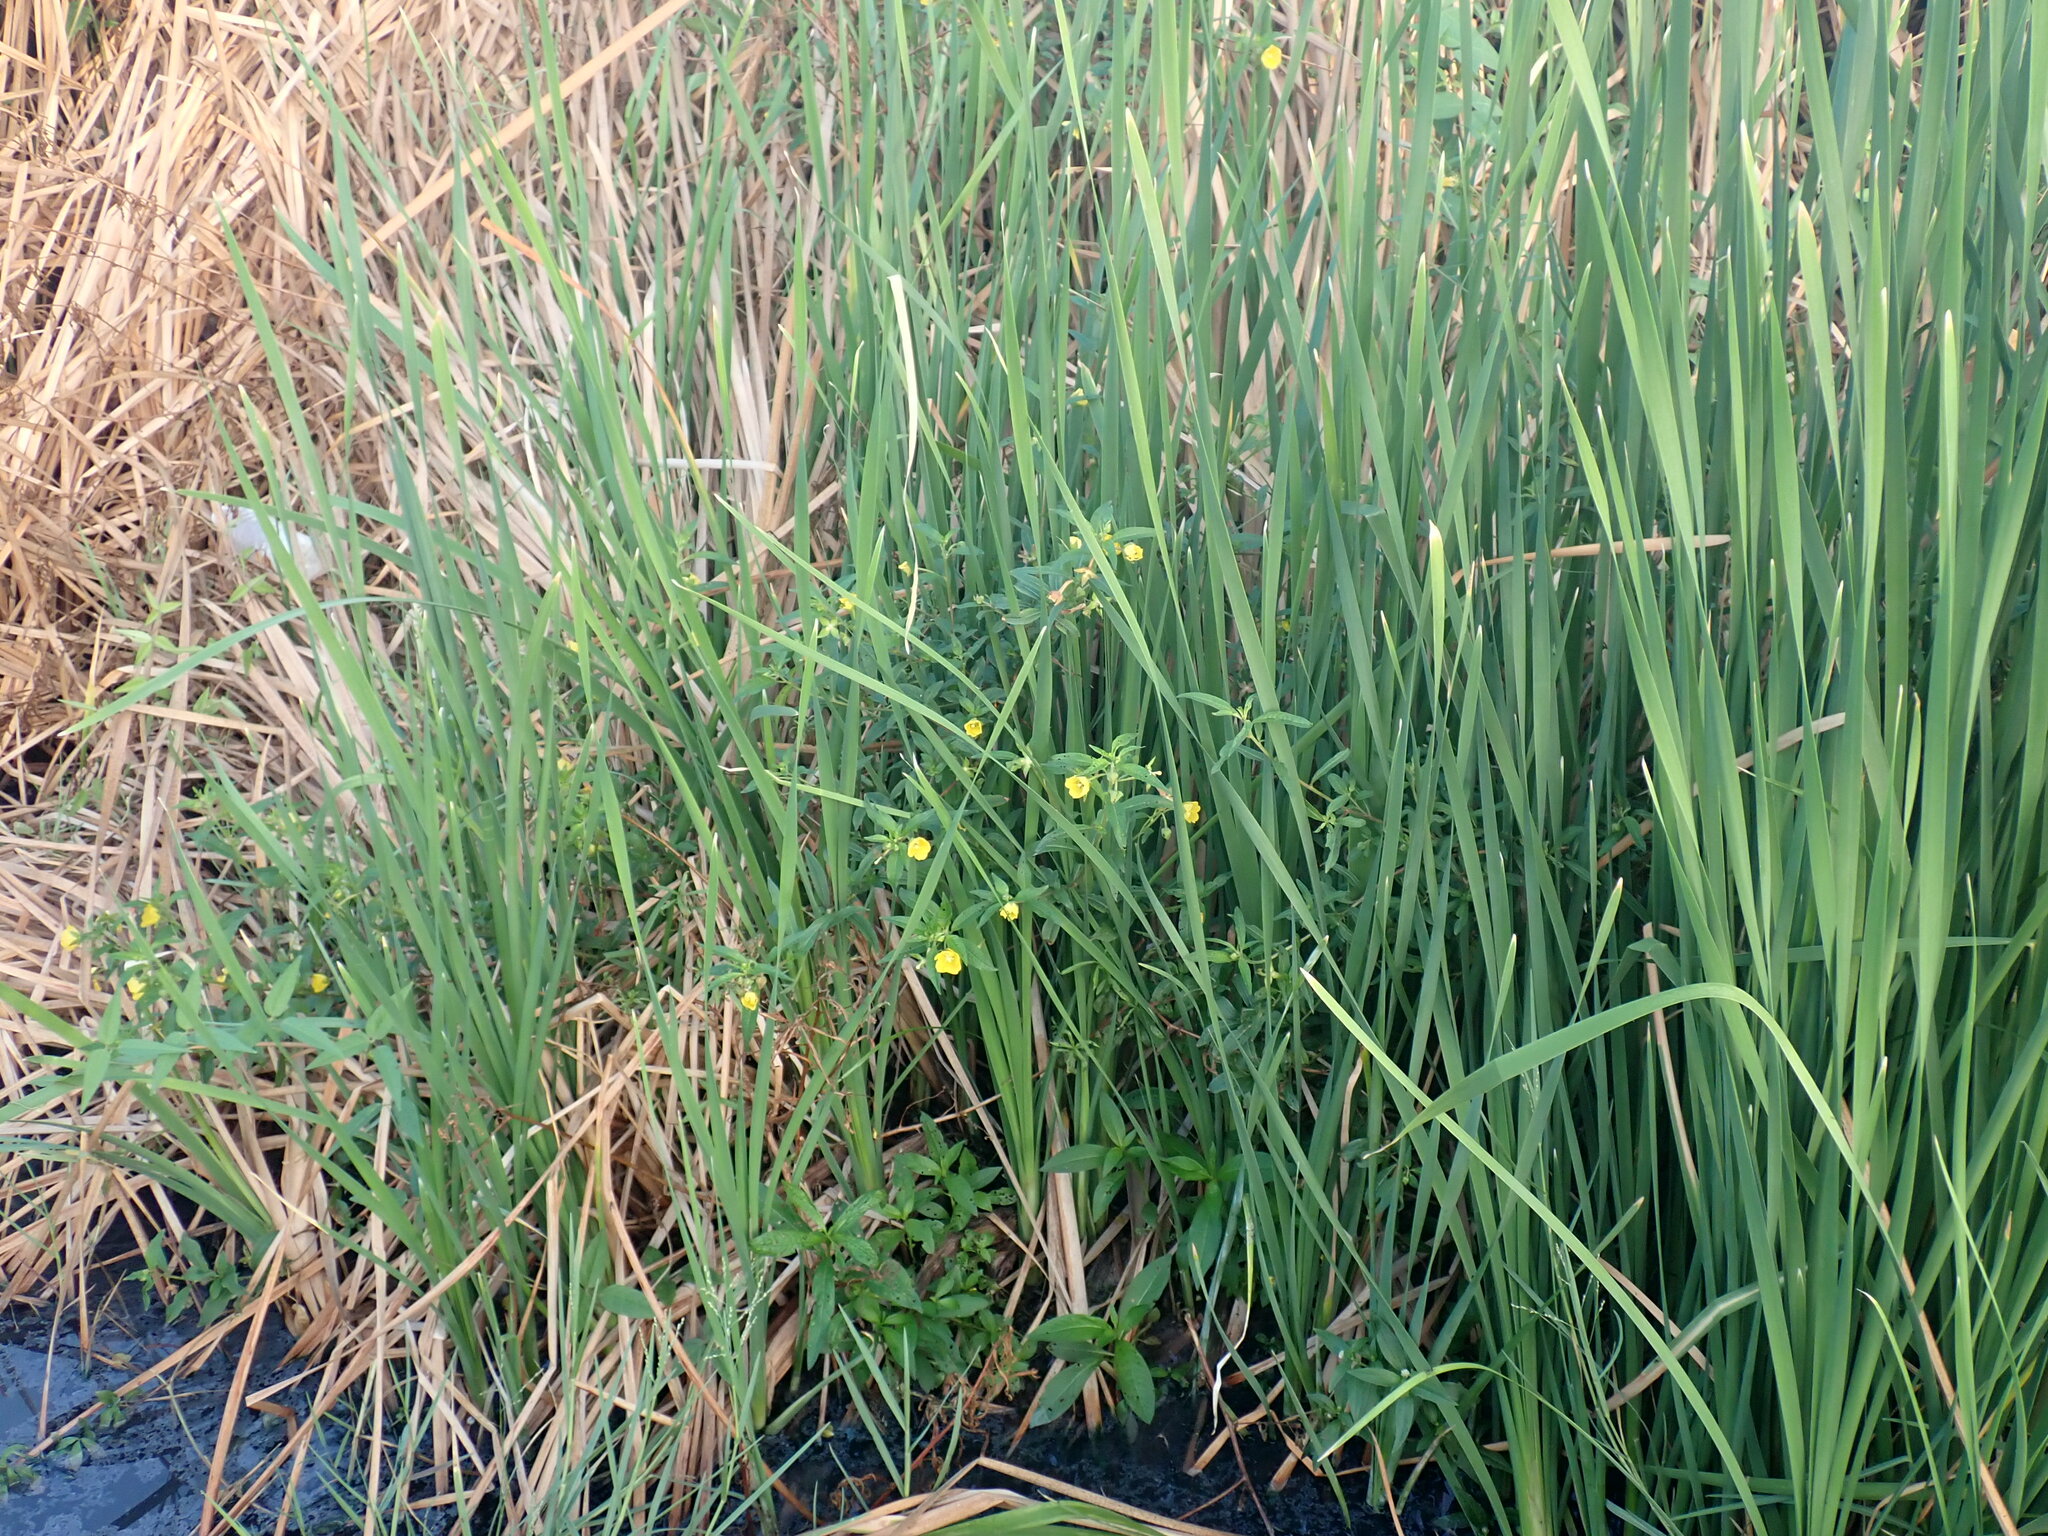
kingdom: Plantae
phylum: Tracheophyta
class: Magnoliopsida
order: Myrtales
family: Onagraceae
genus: Ludwigia
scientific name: Ludwigia octovalvis
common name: Water-primrose
